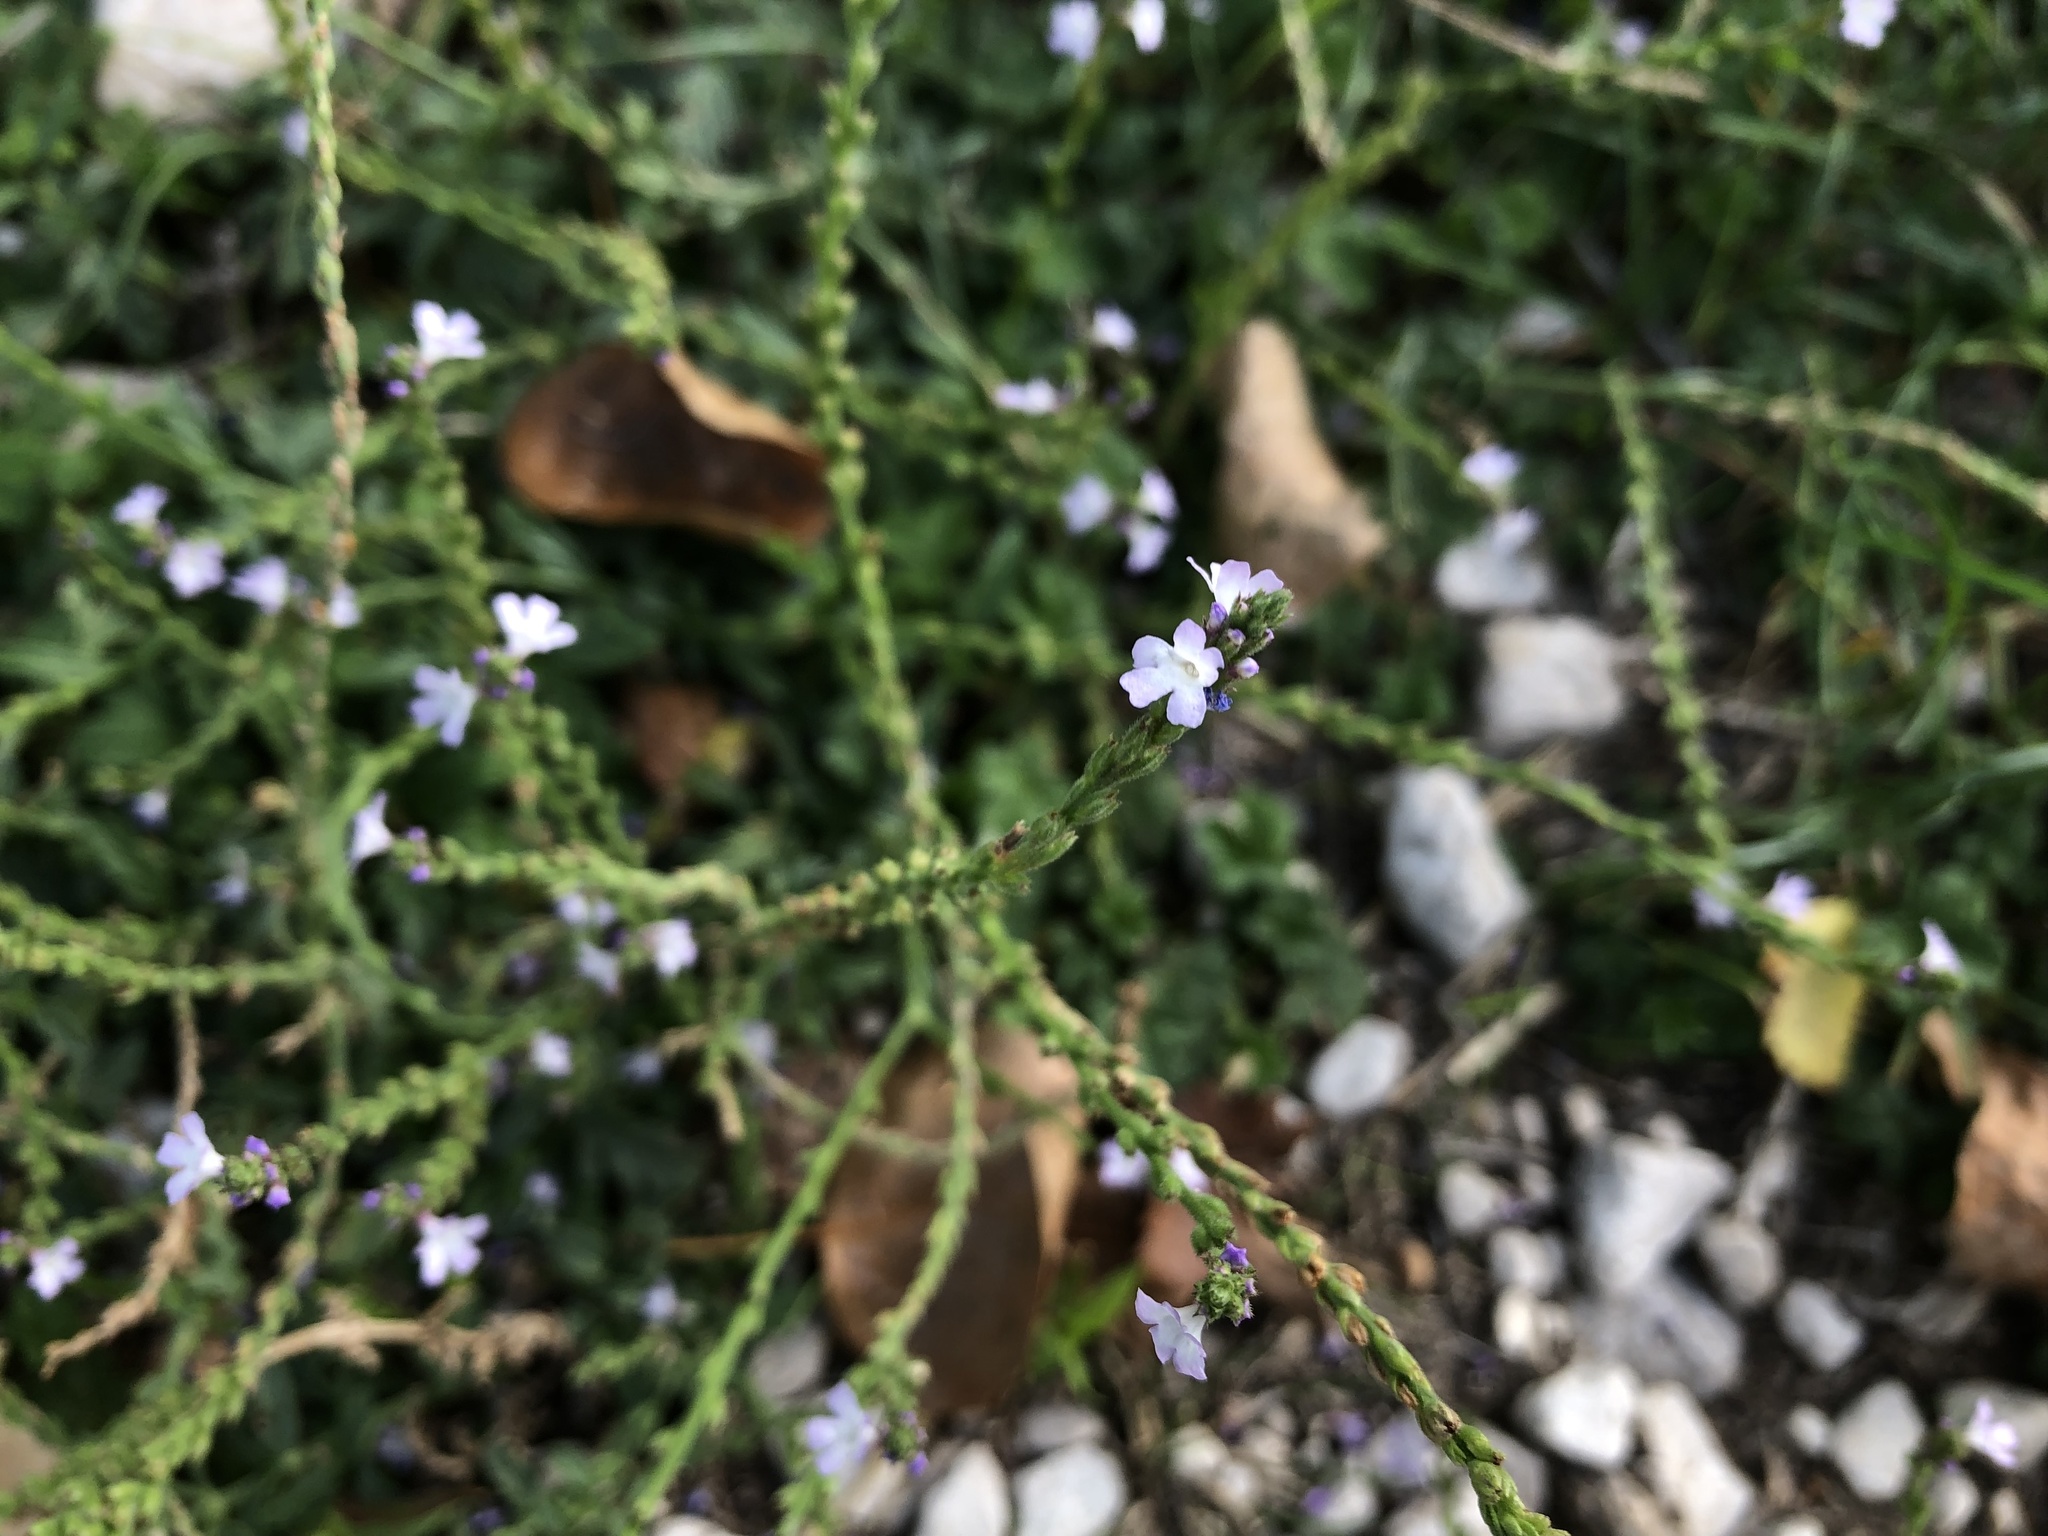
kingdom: Plantae
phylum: Tracheophyta
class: Magnoliopsida
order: Lamiales
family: Verbenaceae
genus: Verbena
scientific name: Verbena officinalis
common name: Vervain
